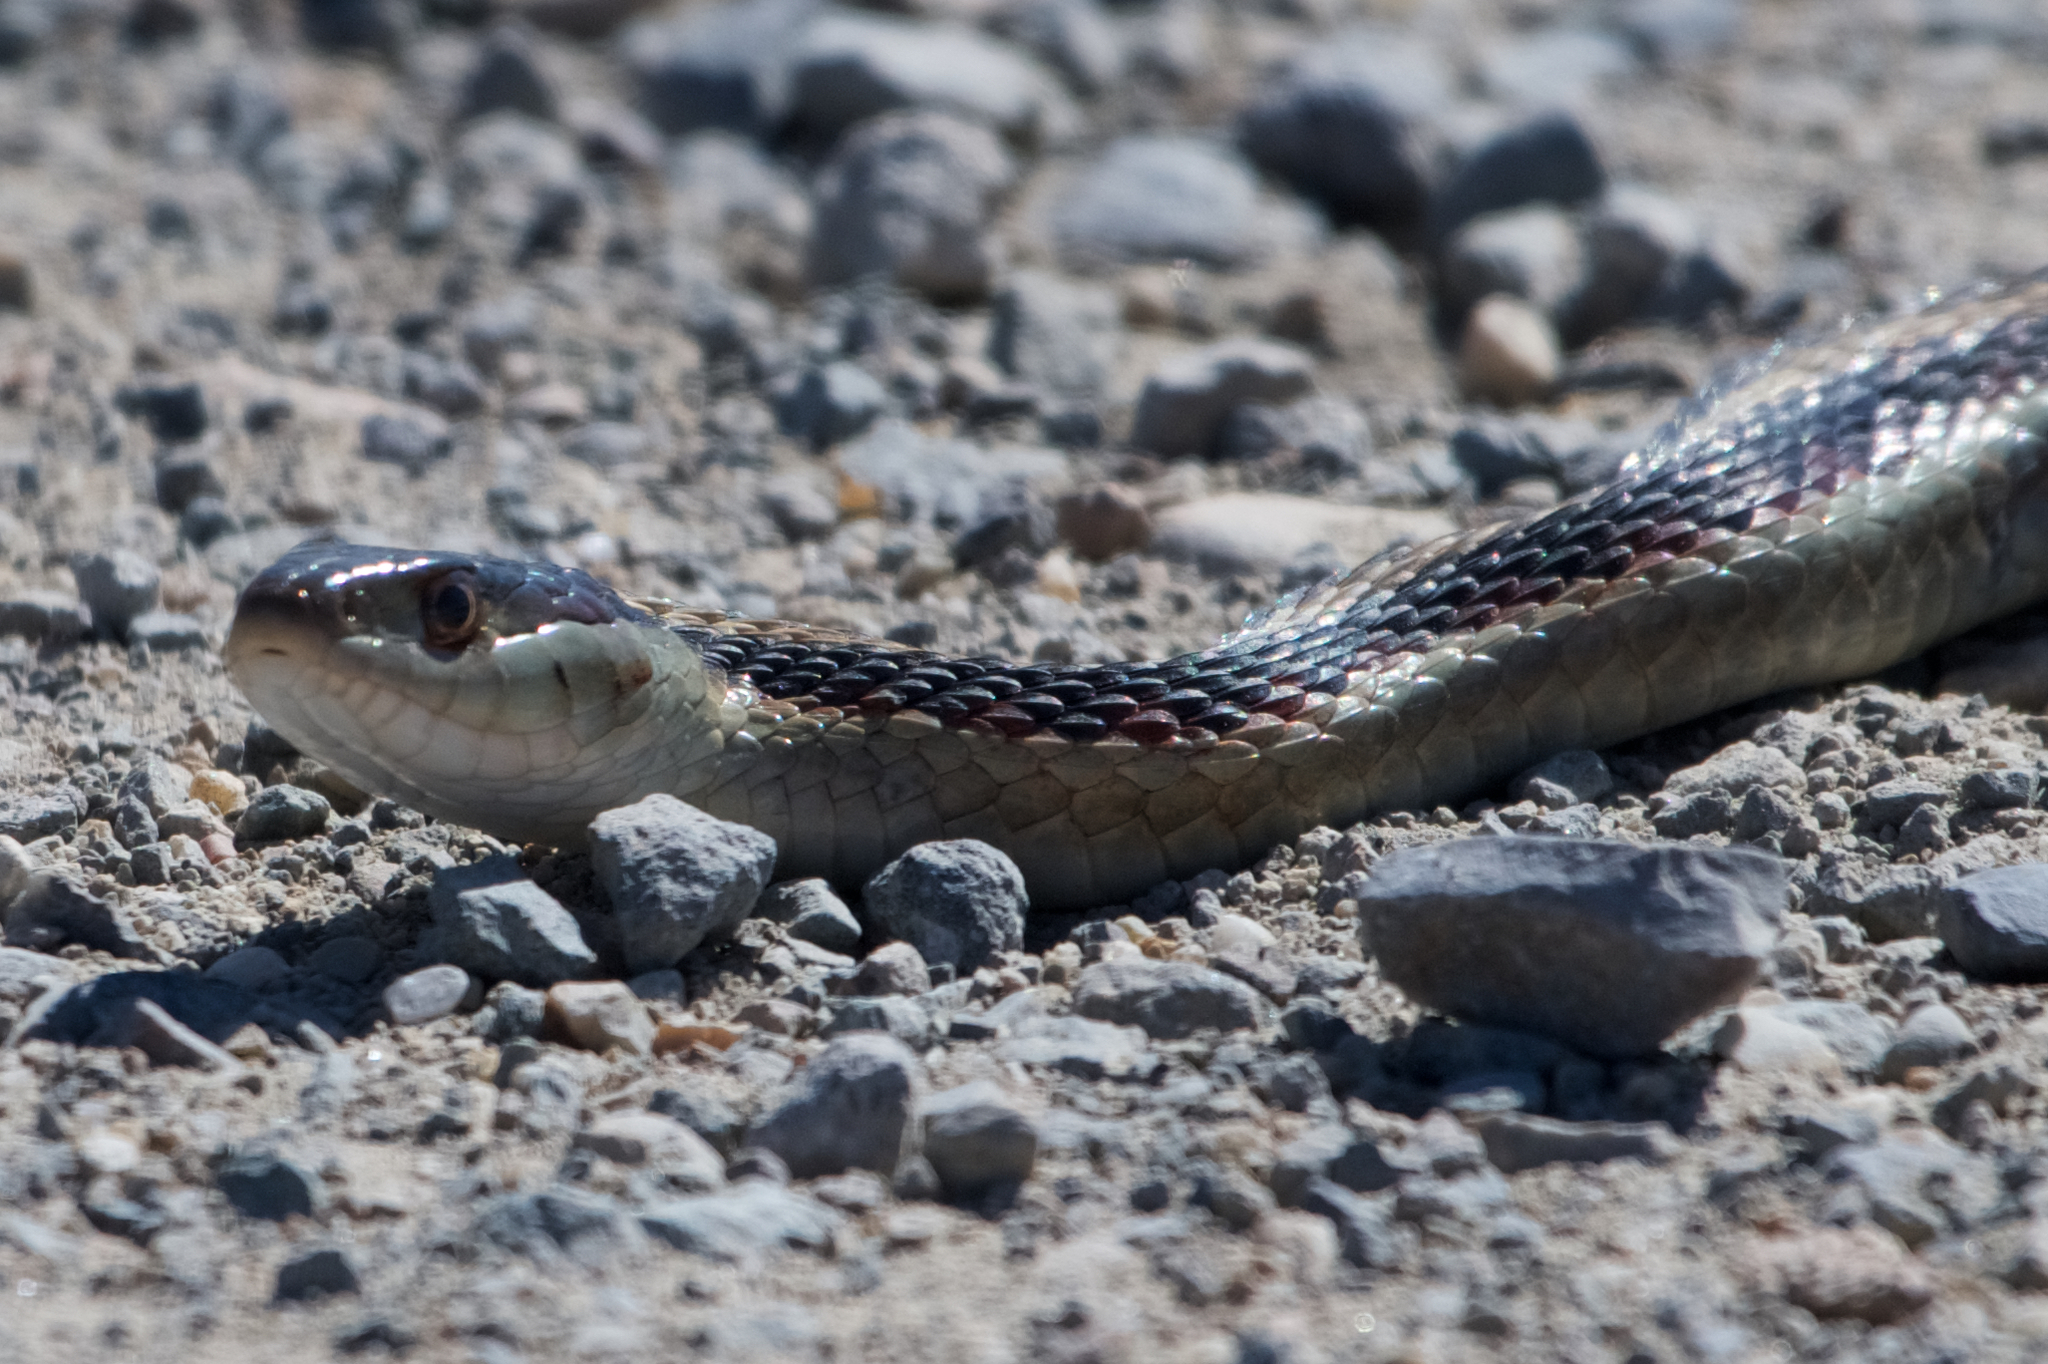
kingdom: Animalia
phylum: Chordata
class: Squamata
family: Colubridae
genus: Thamnophis
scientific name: Thamnophis sirtalis
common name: Common garter snake
